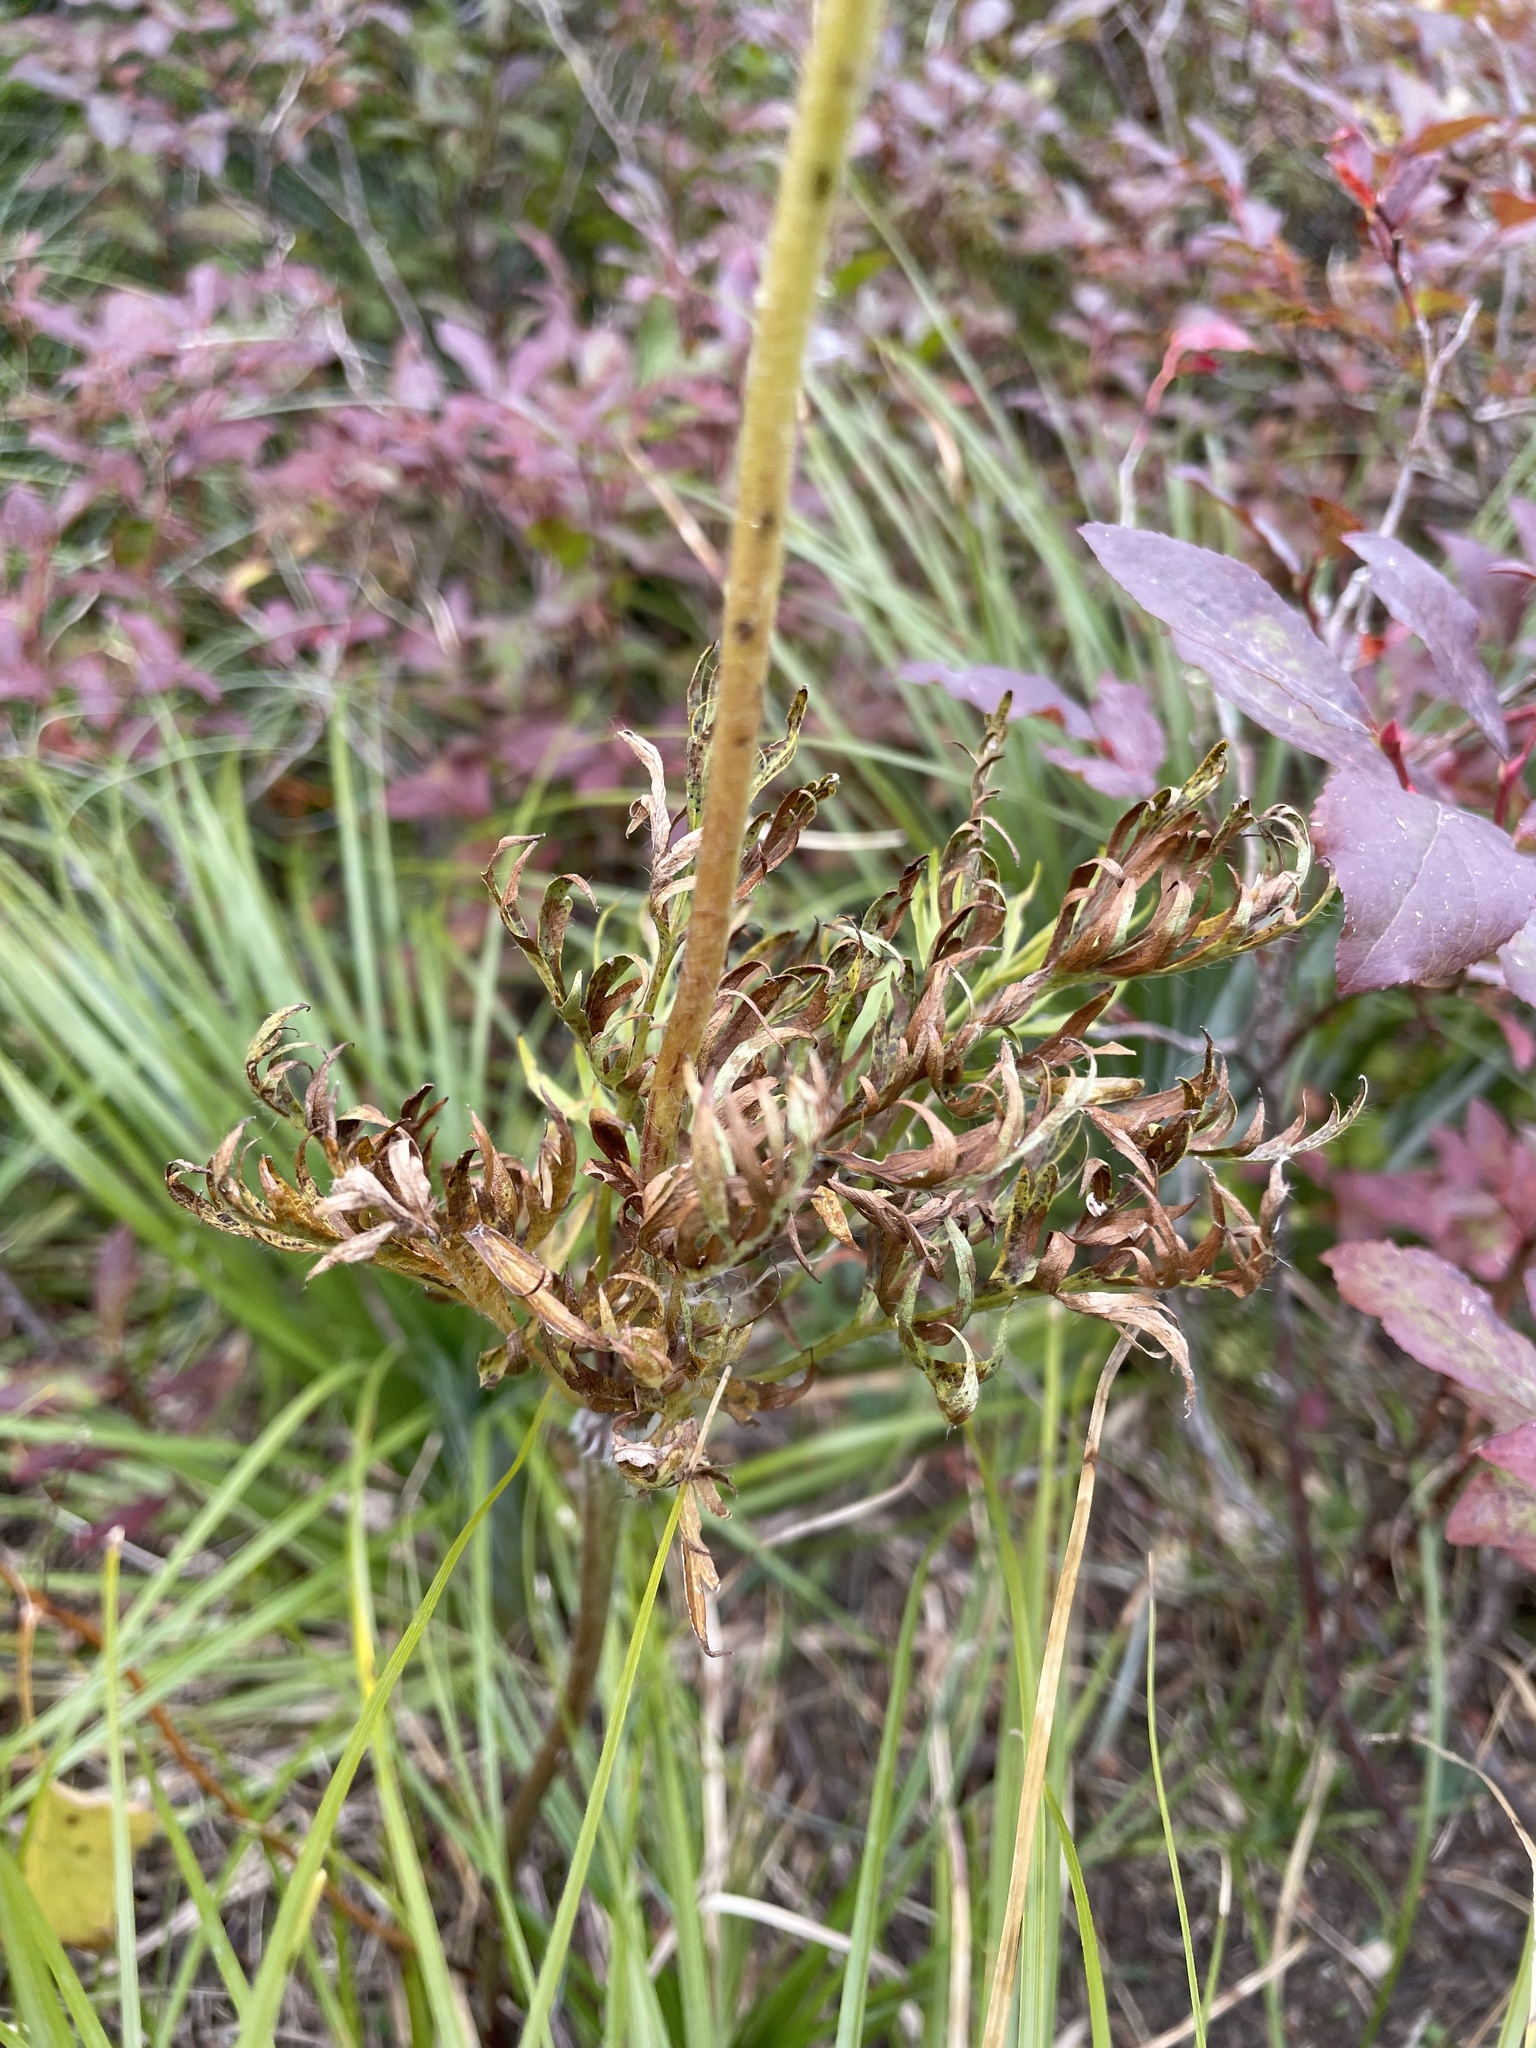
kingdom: Plantae
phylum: Tracheophyta
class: Magnoliopsida
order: Ranunculales
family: Ranunculaceae
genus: Pulsatilla
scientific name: Pulsatilla occidentalis
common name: Mountain pasqueflower
